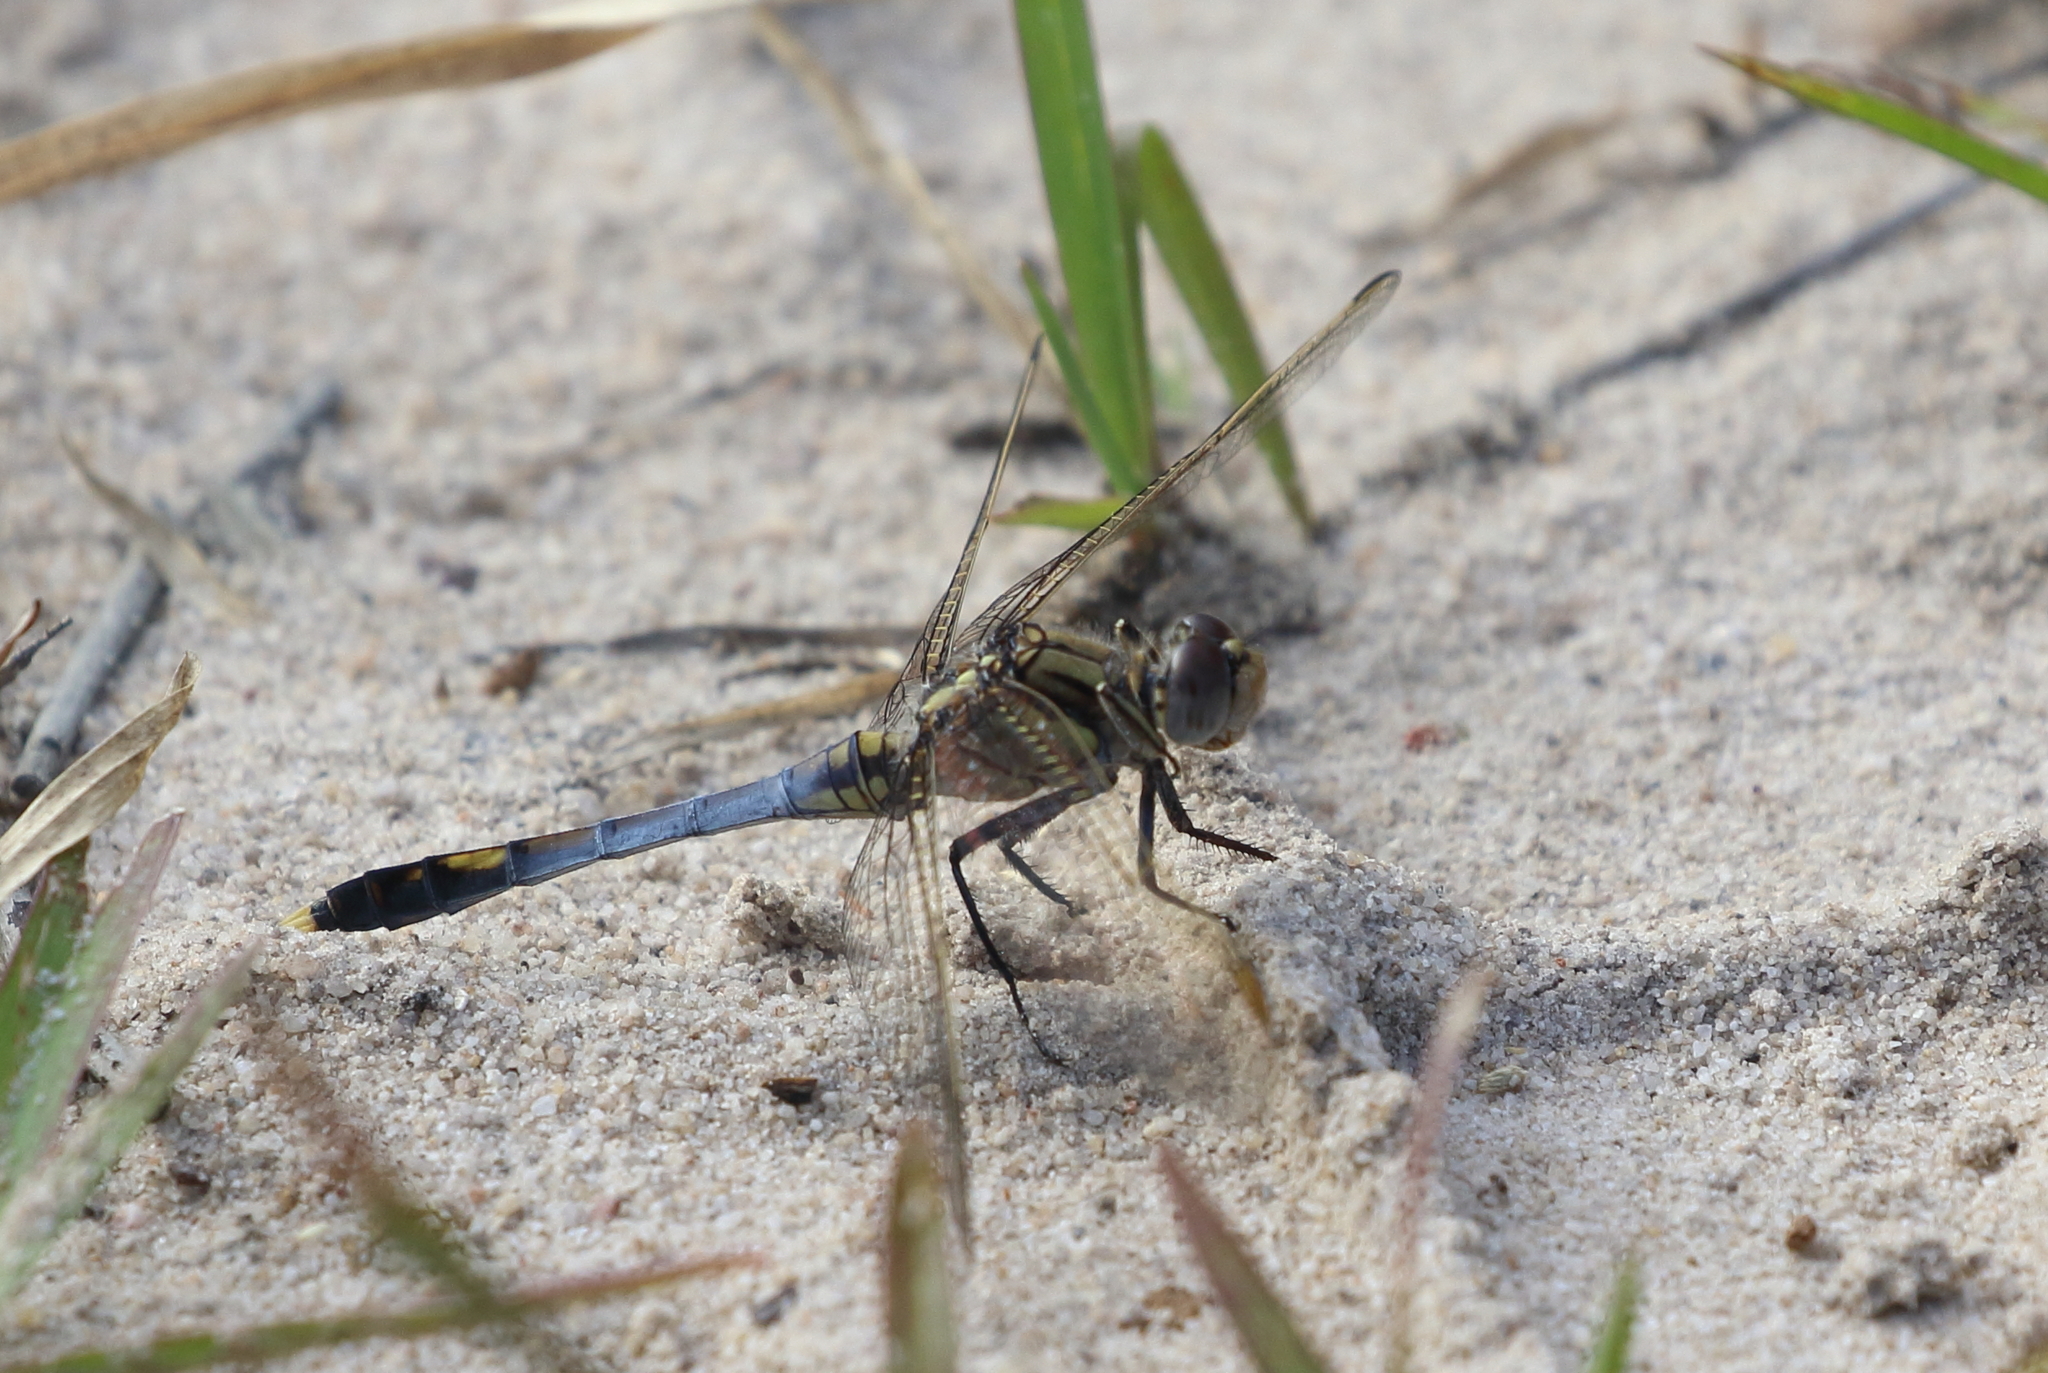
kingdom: Animalia
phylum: Arthropoda
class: Insecta
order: Odonata
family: Libellulidae
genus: Orthetrum
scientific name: Orthetrum caledonicum
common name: Blue skimmer
